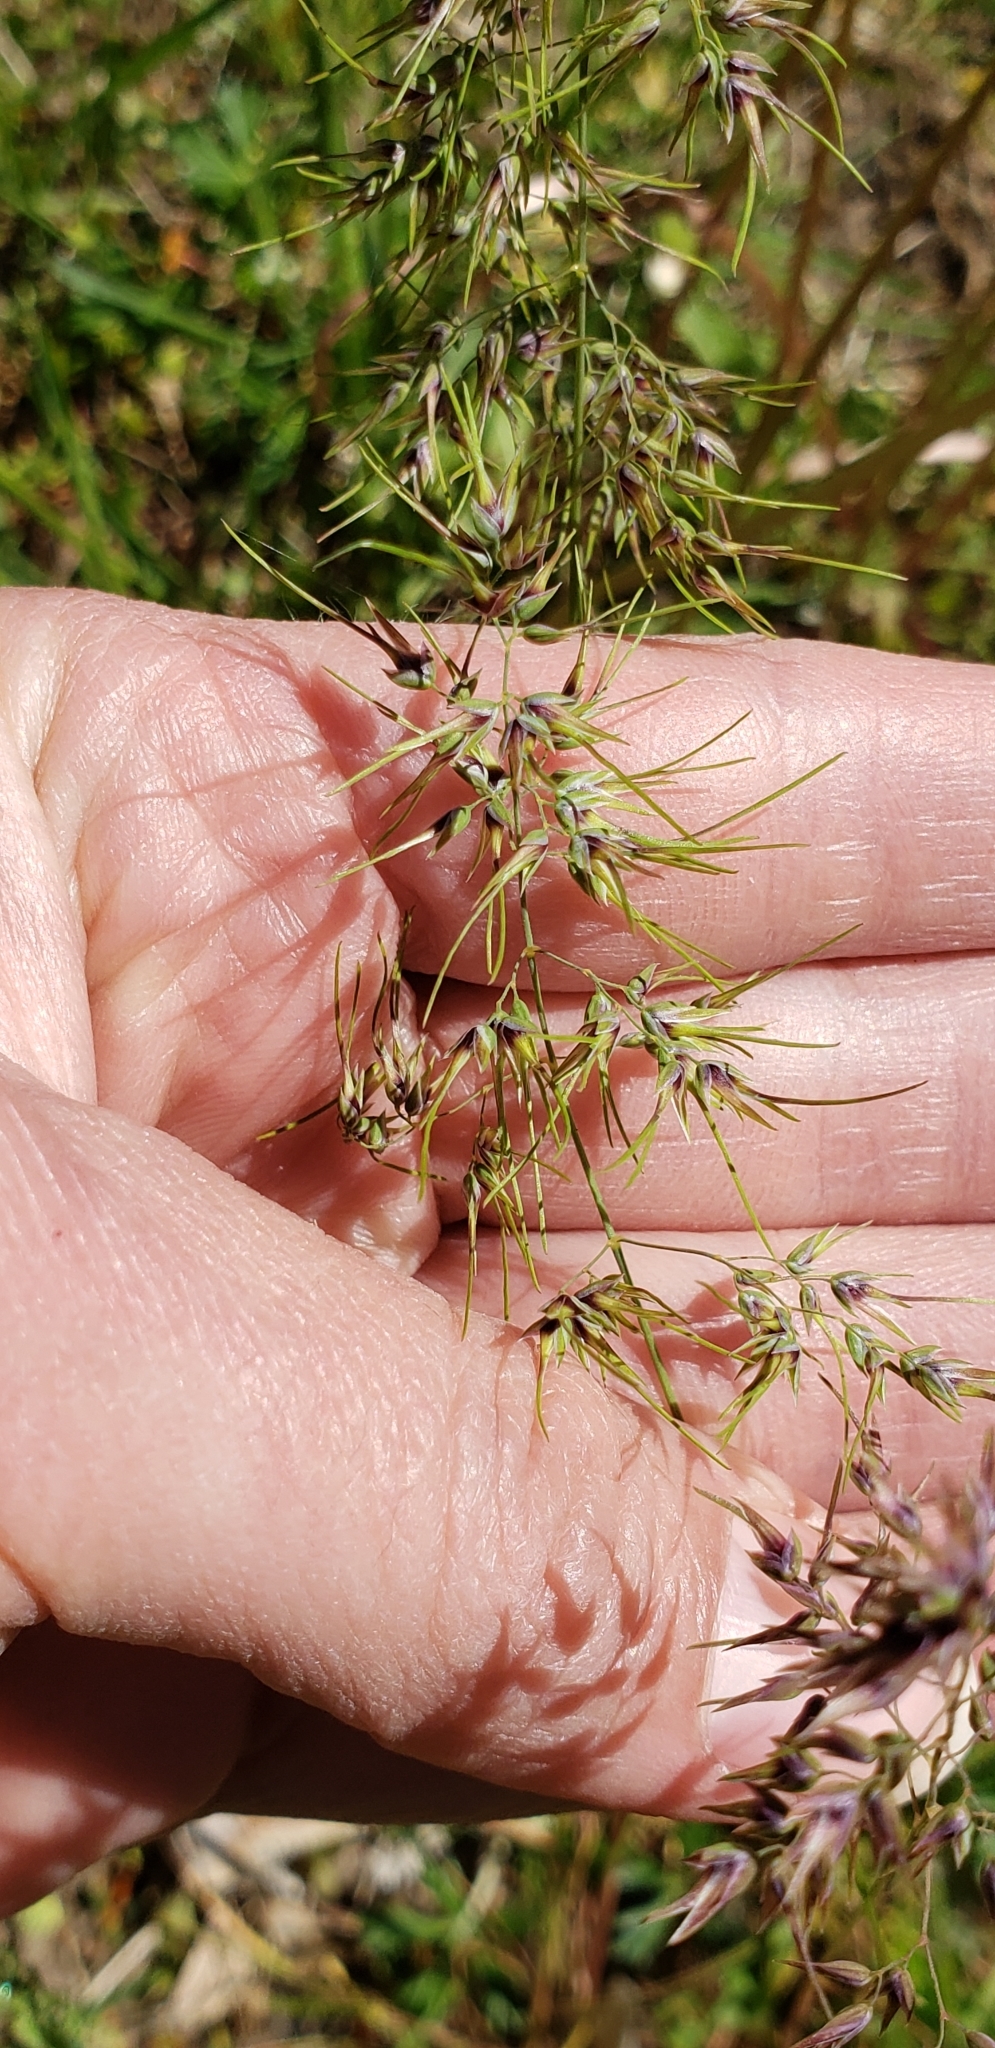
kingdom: Plantae
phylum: Tracheophyta
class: Liliopsida
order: Poales
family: Poaceae
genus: Poa
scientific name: Poa bulbosa
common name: Bulbous bluegrass
